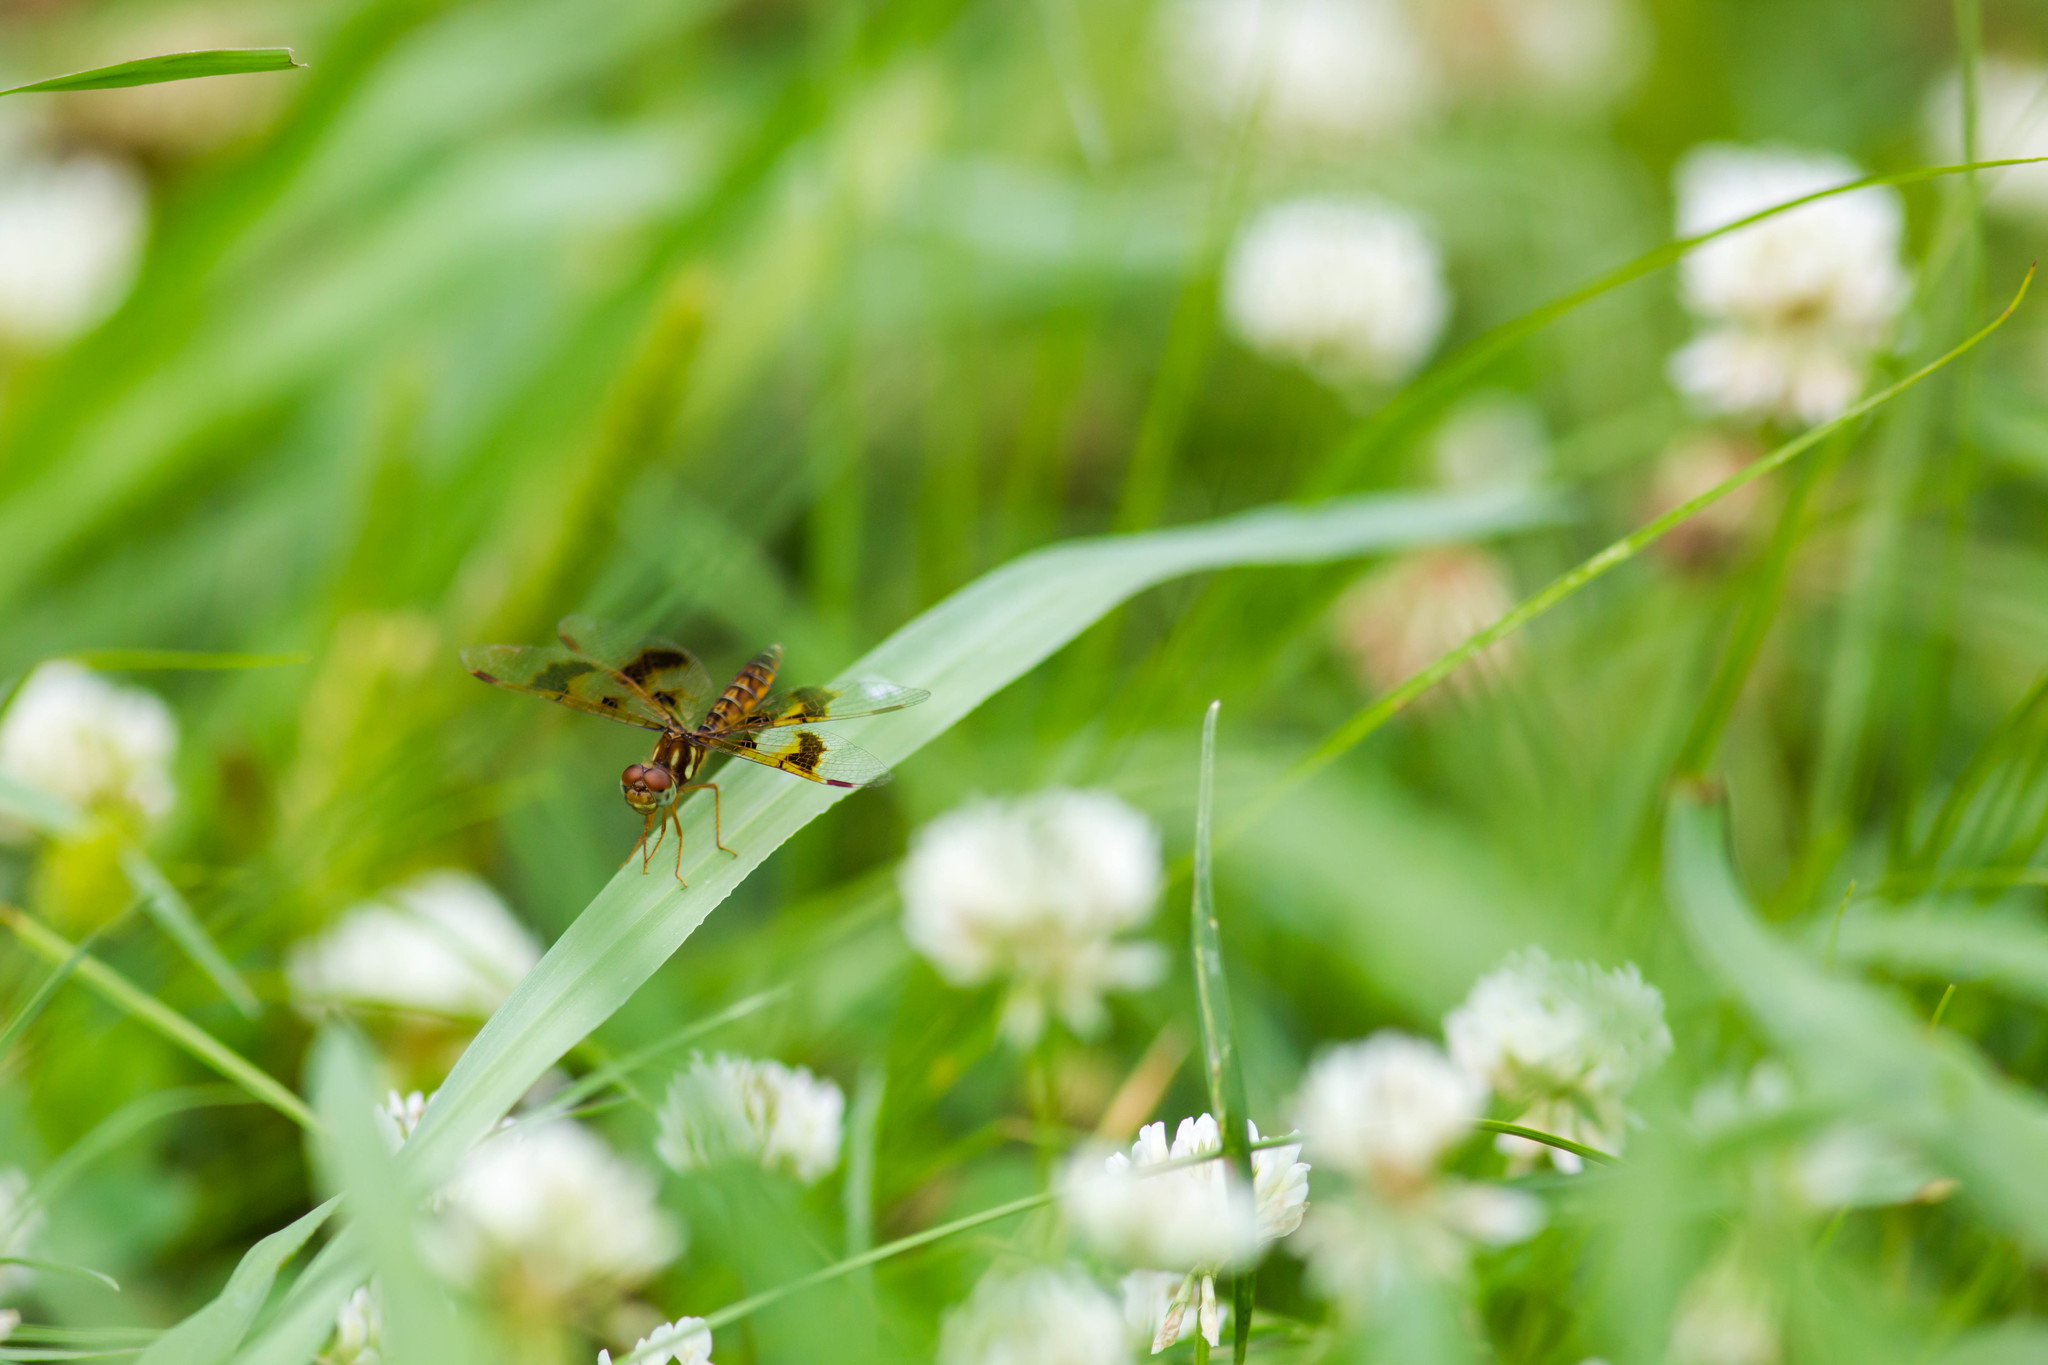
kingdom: Animalia
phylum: Arthropoda
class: Insecta
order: Odonata
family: Libellulidae
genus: Perithemis
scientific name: Perithemis tenera
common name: Eastern amberwing
